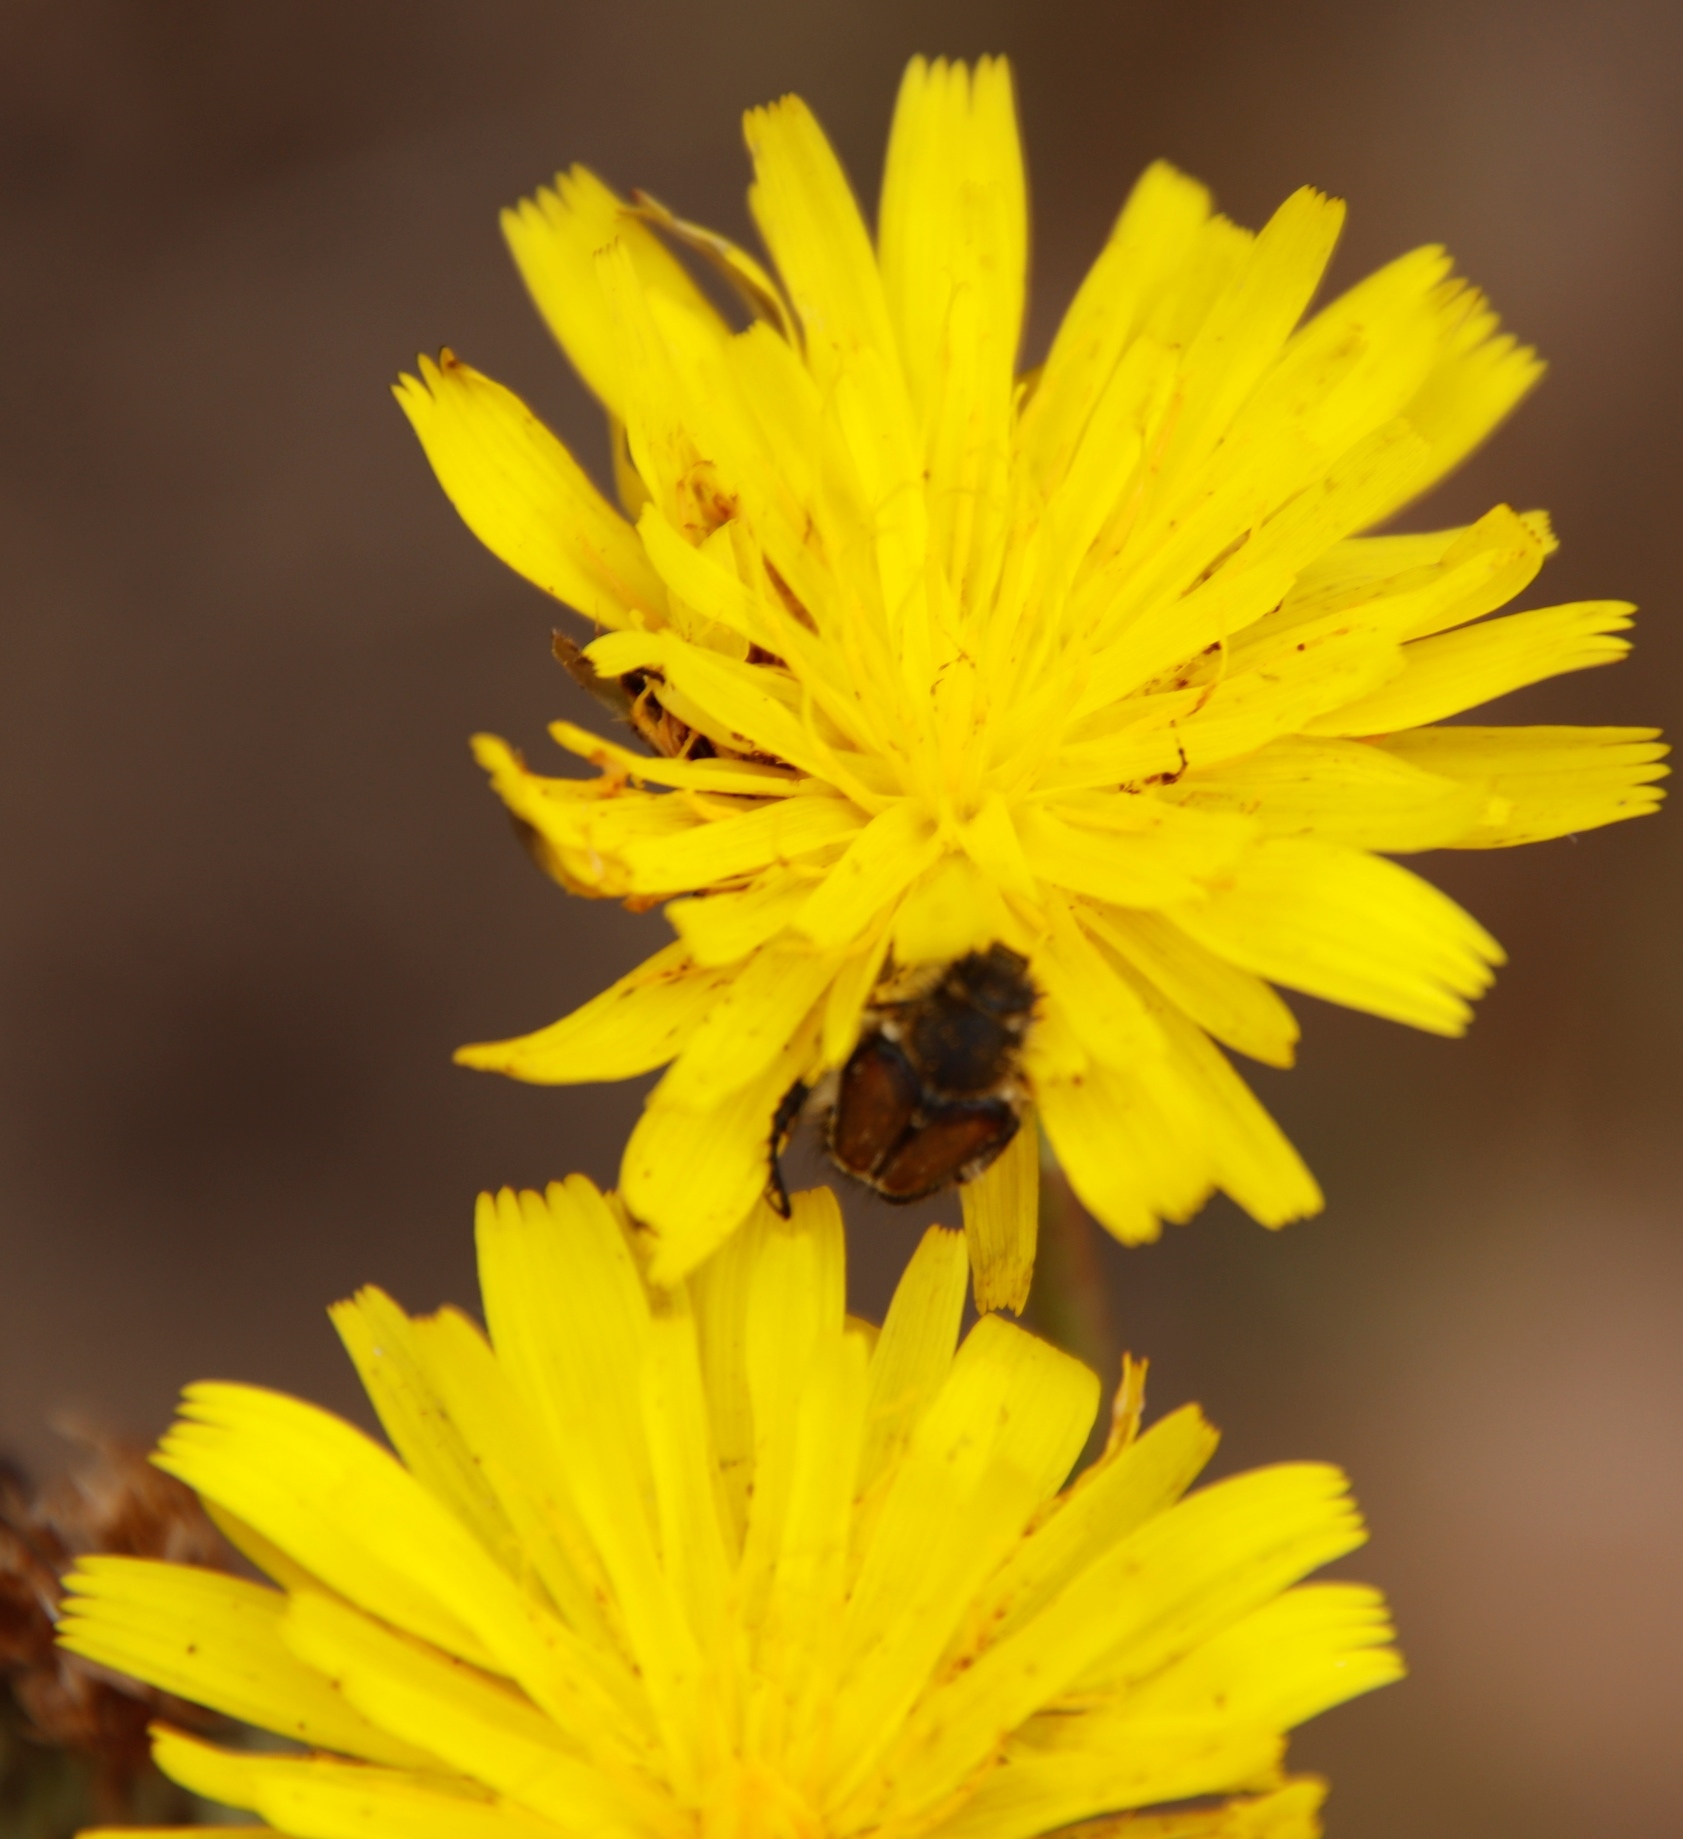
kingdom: Plantae
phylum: Tracheophyta
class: Magnoliopsida
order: Asterales
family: Asteraceae
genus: Hypochaeris
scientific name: Hypochaeris radicata
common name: Flatweed
